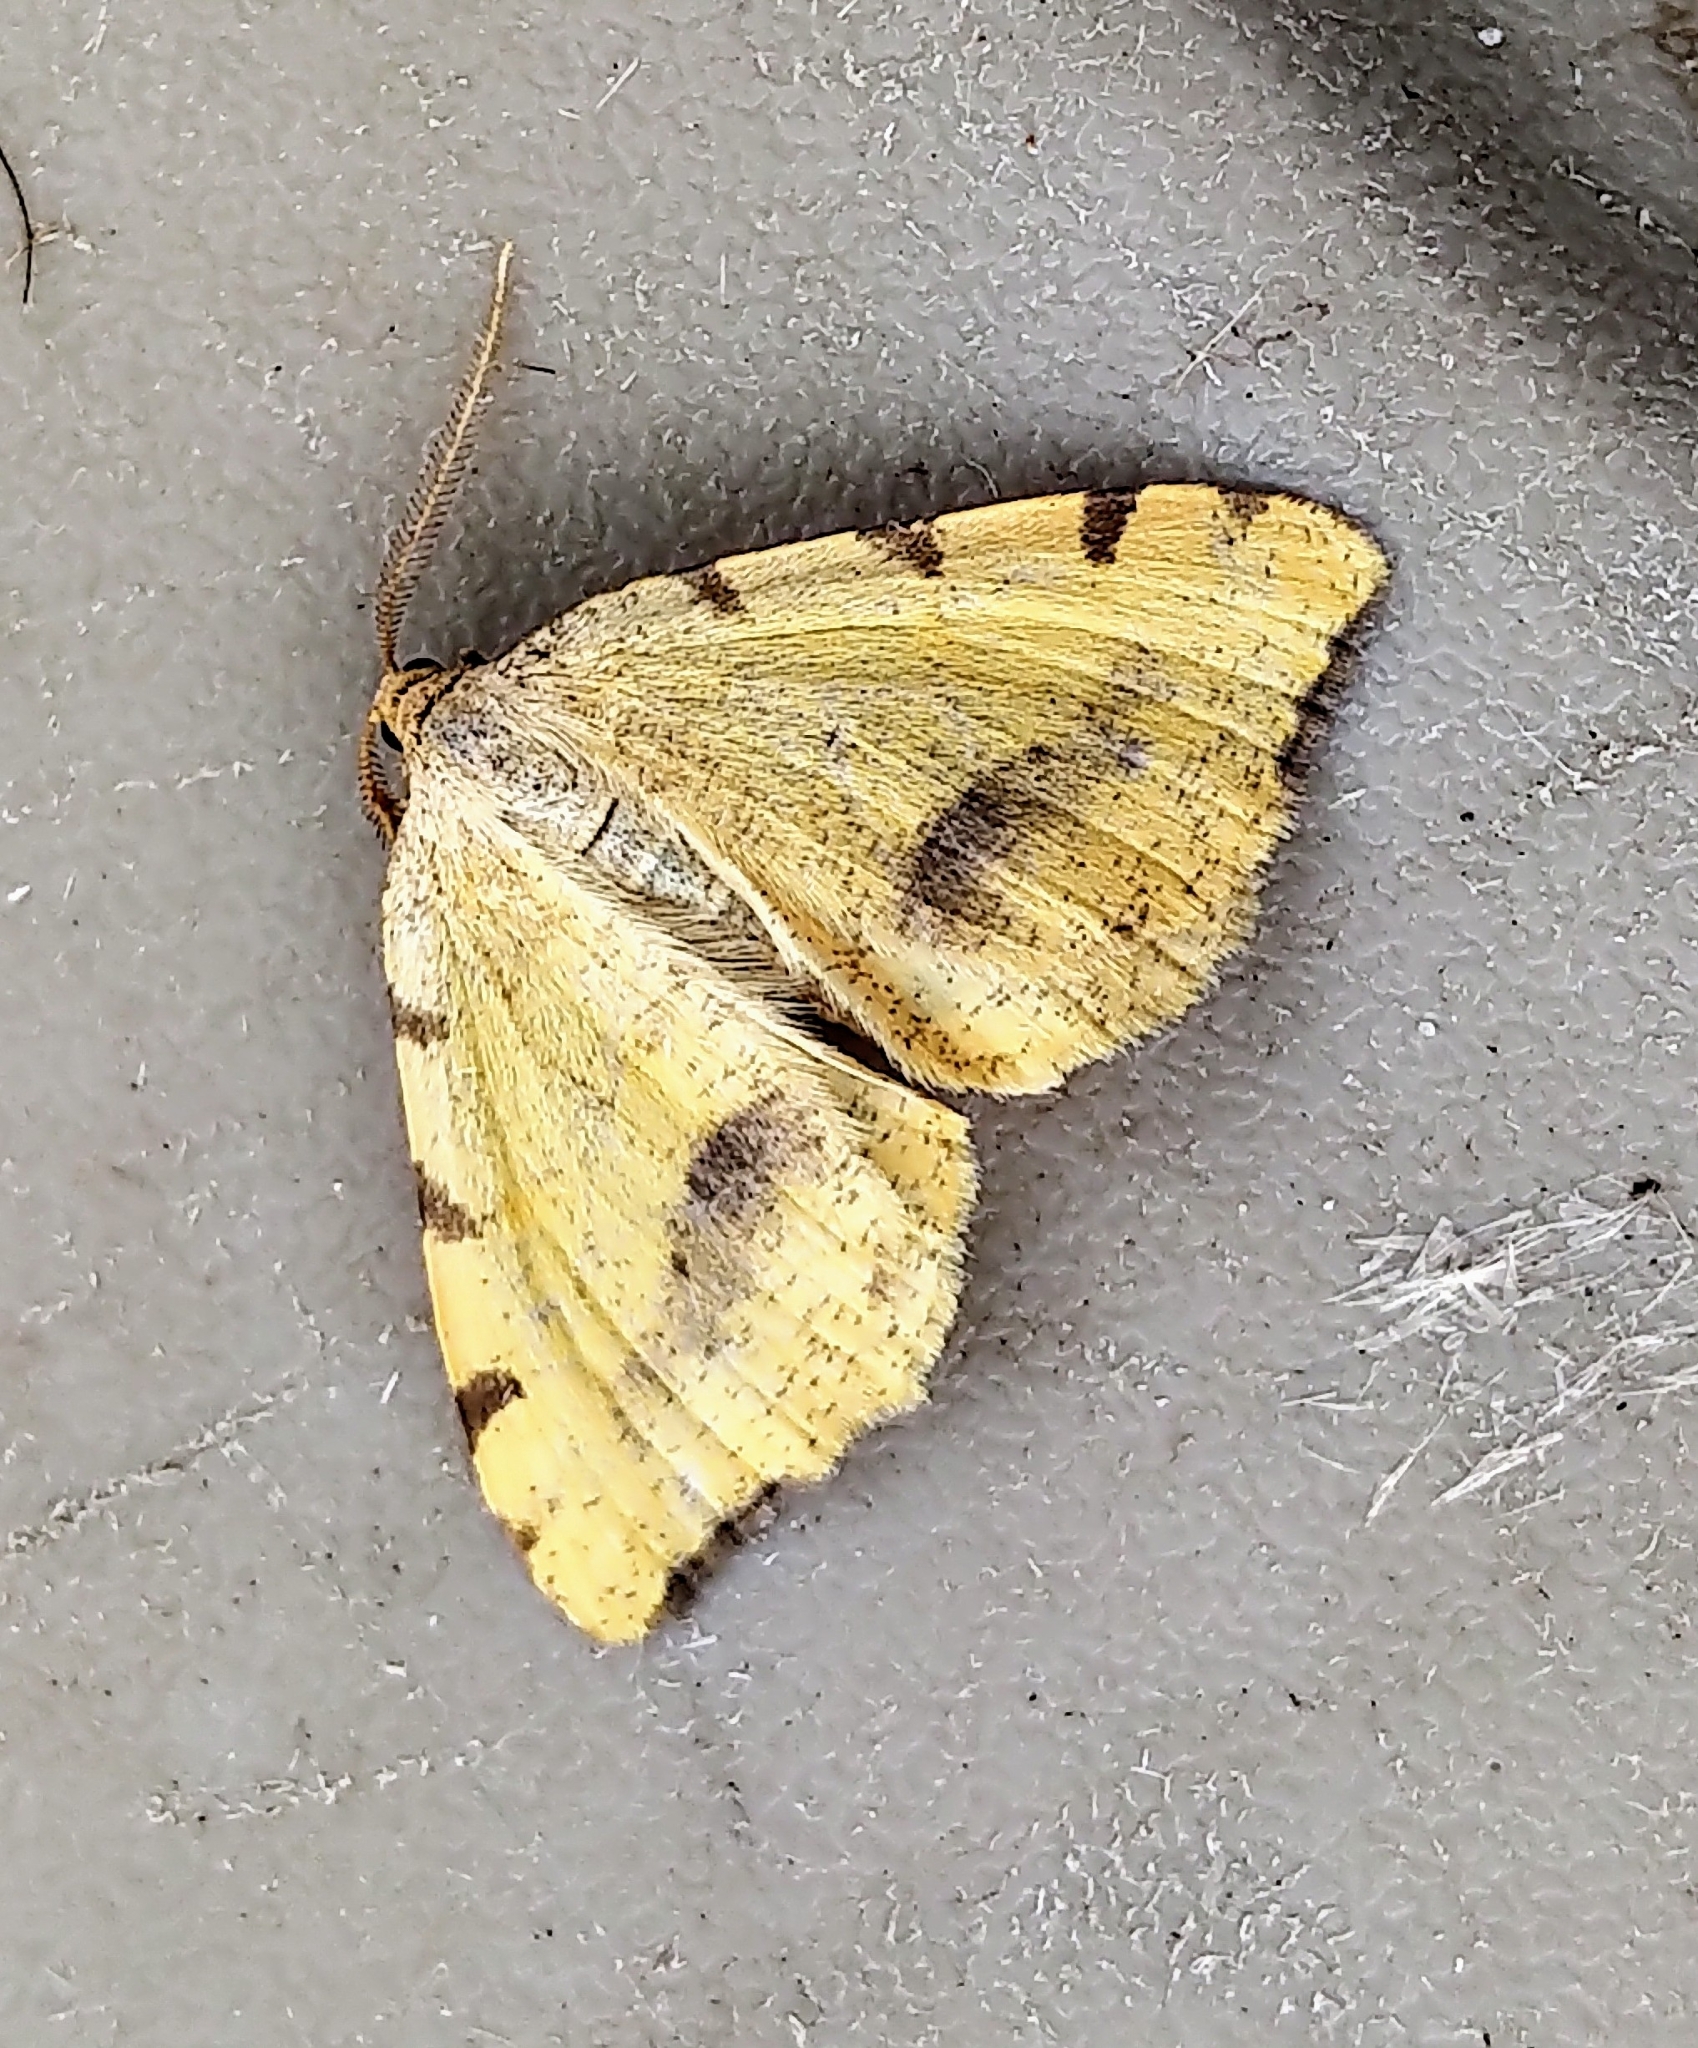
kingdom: Animalia
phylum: Arthropoda
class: Insecta
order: Lepidoptera
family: Geometridae
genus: Macaria
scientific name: Macaria occiduaria
